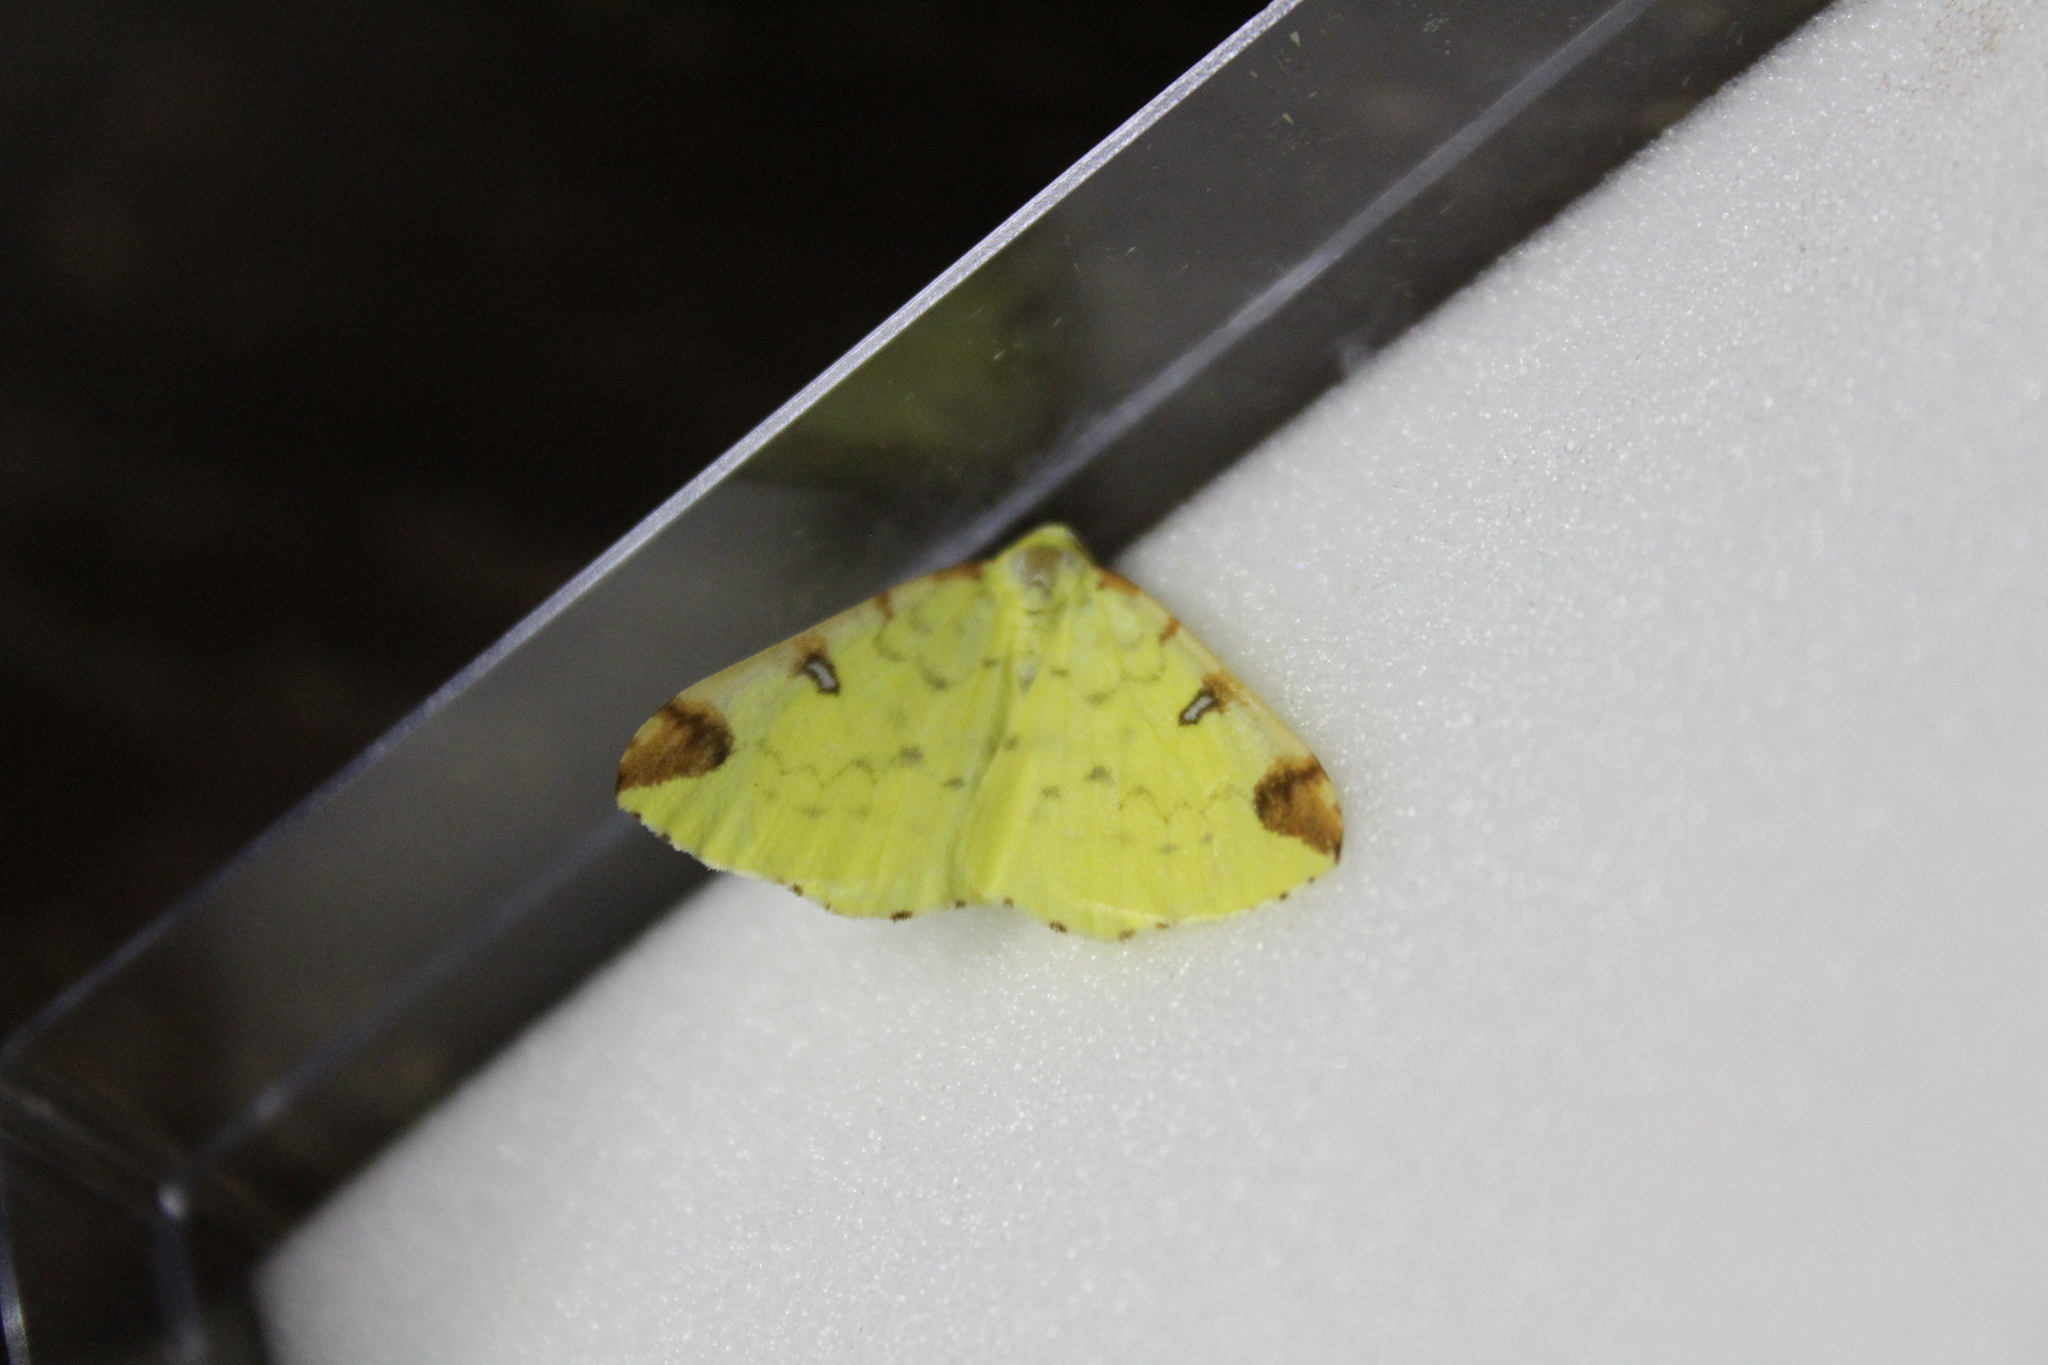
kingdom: Animalia
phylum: Arthropoda
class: Insecta
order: Lepidoptera
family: Geometridae
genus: Opisthograptis
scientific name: Opisthograptis luteolata
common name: Brimstone moth
